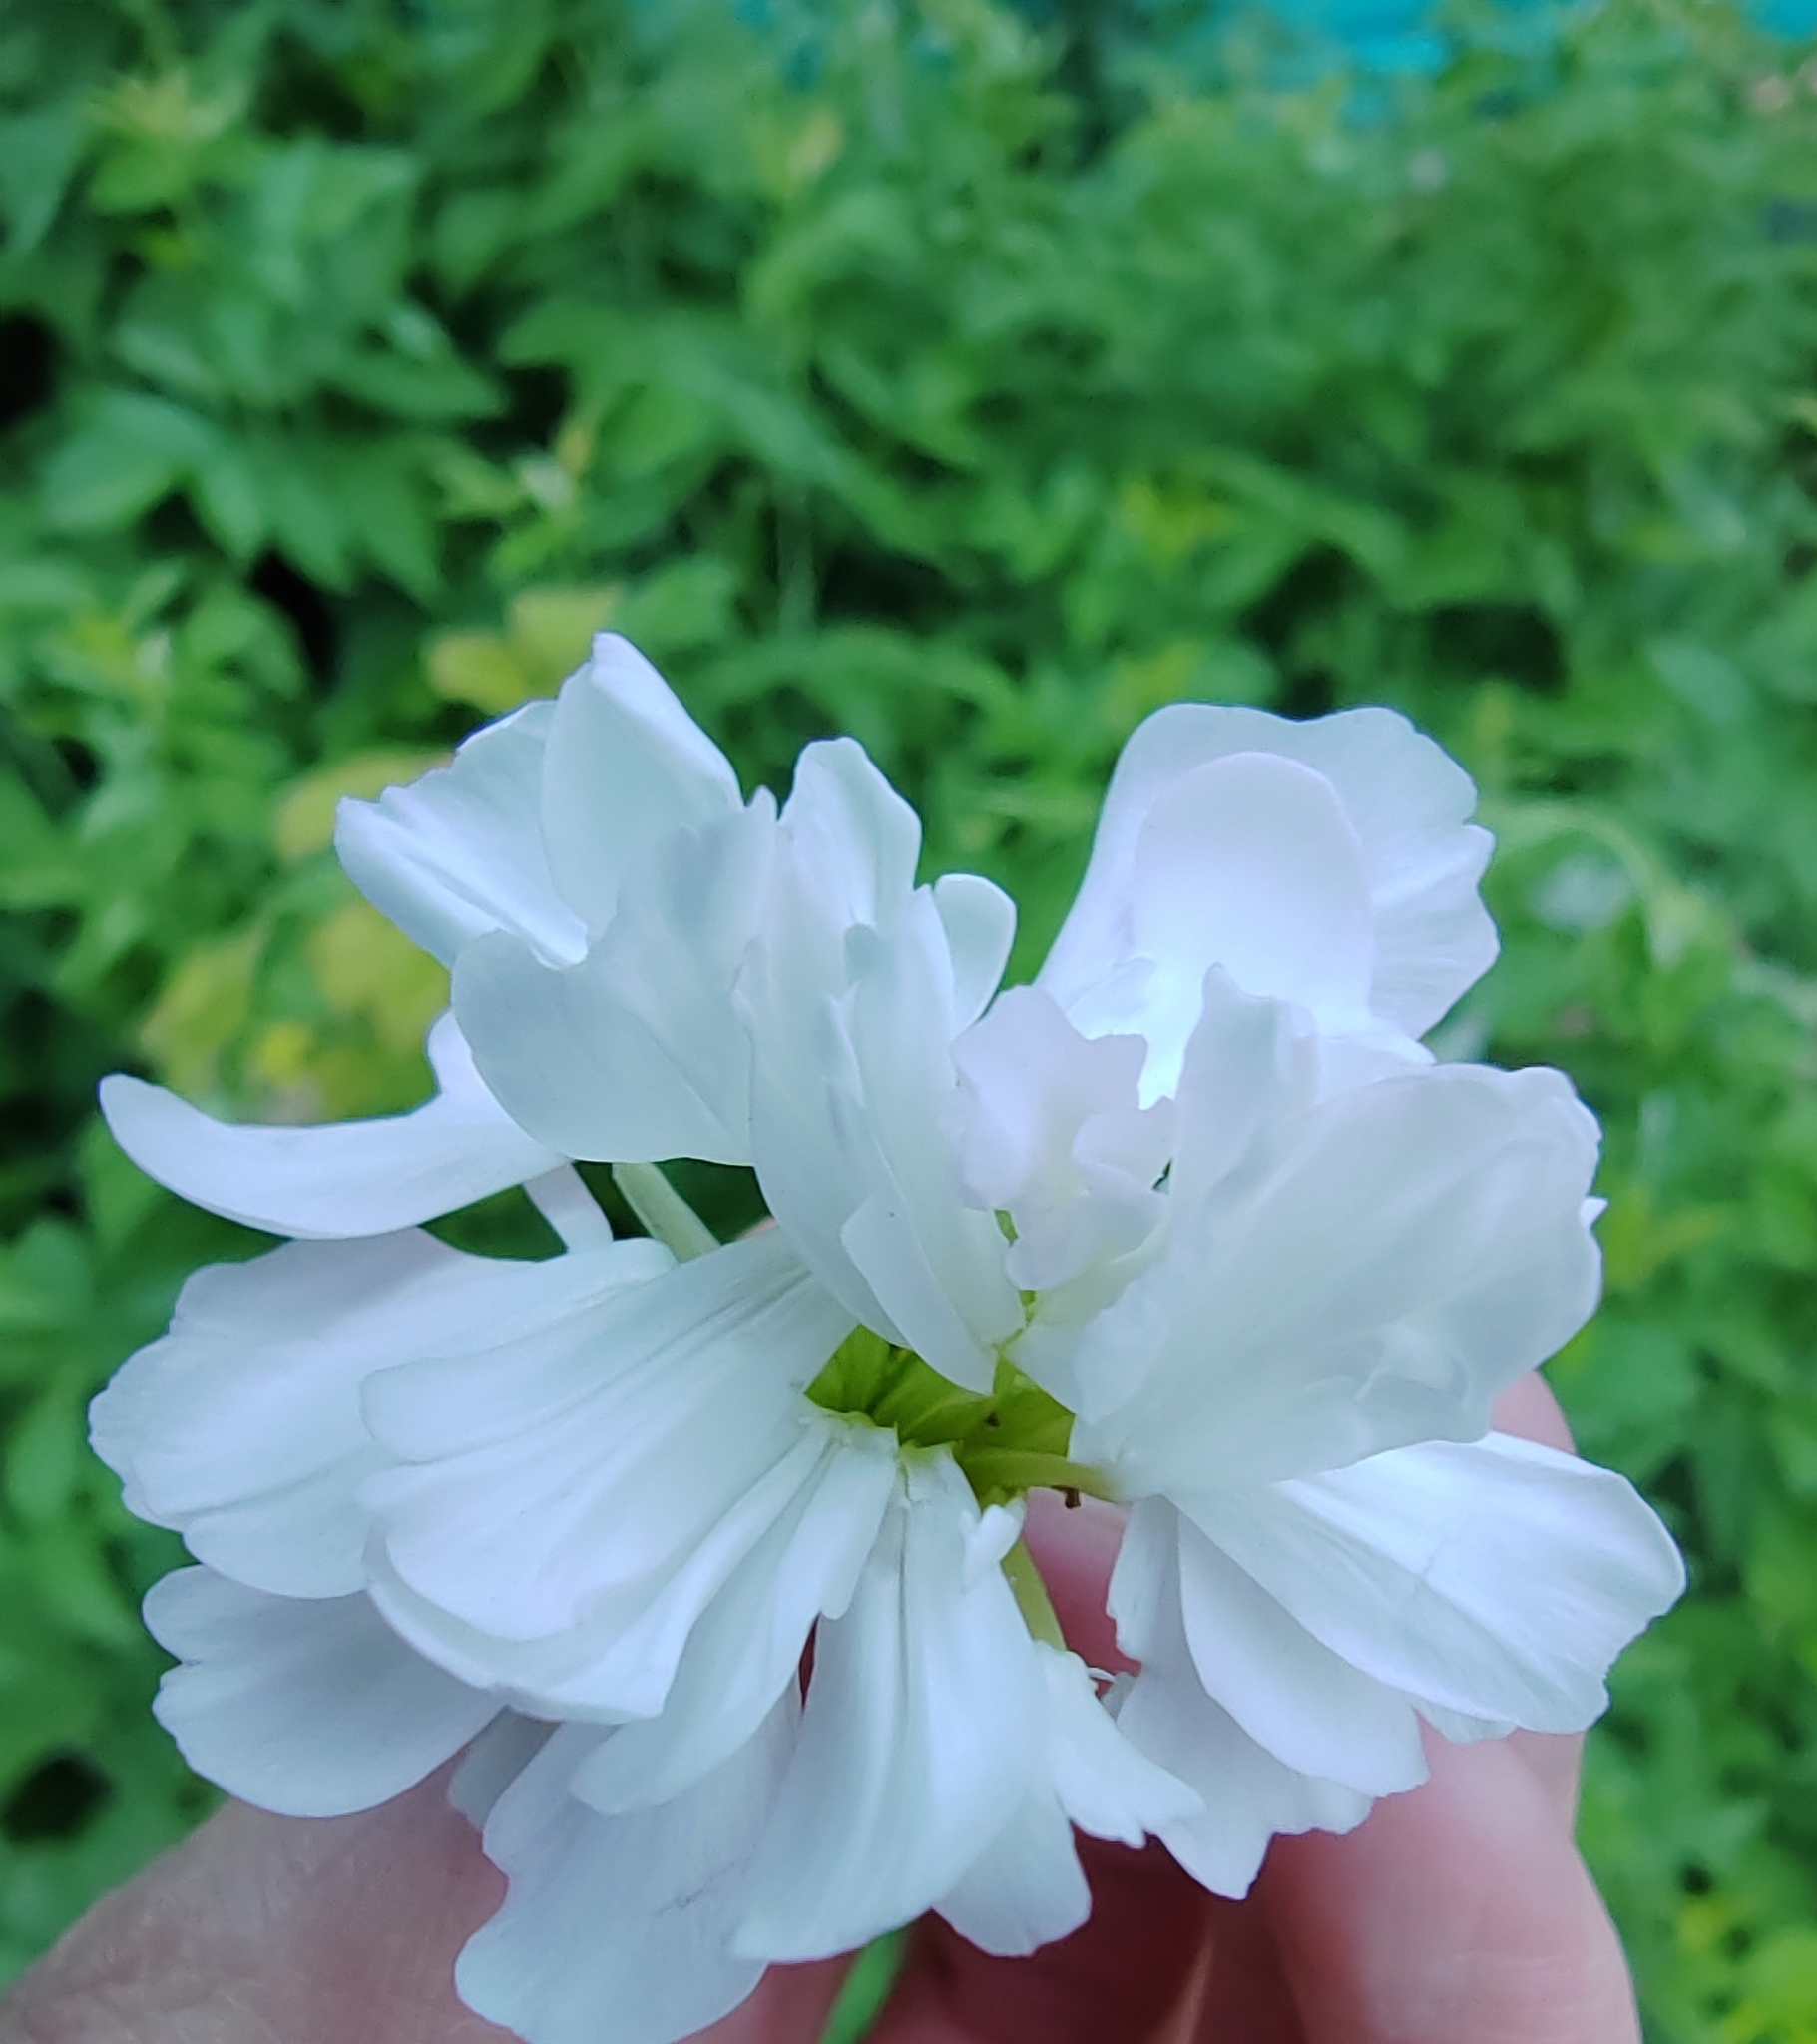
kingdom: Plantae
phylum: Tracheophyta
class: Magnoliopsida
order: Caryophyllales
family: Caryophyllaceae
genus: Saponaria
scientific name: Saponaria officinalis
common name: Soapwort
